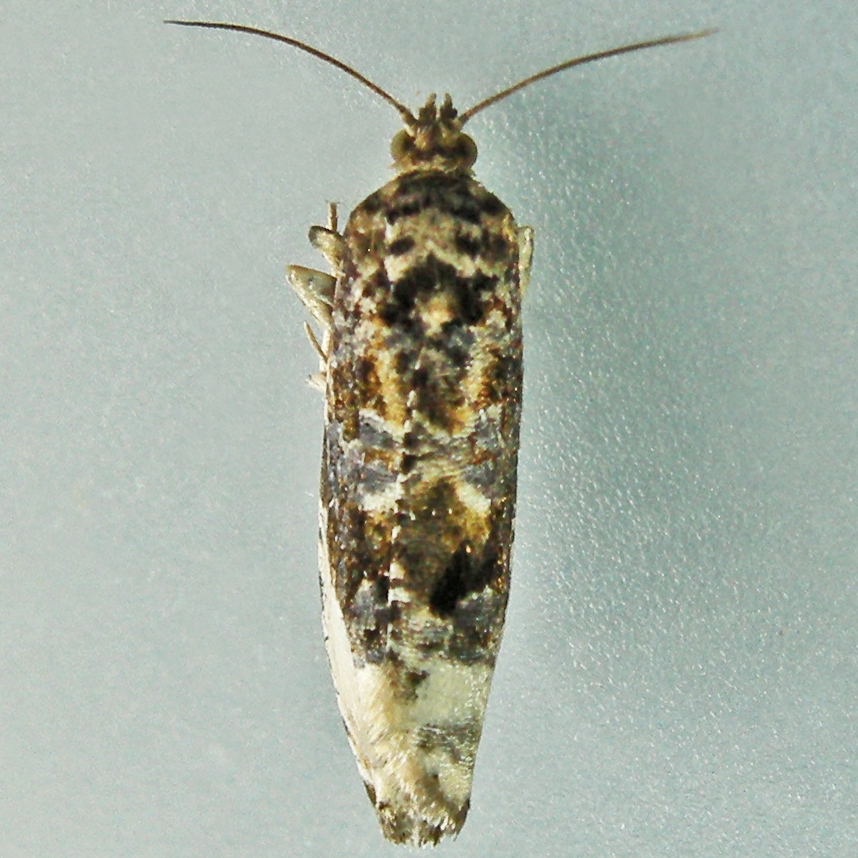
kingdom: Animalia
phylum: Arthropoda
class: Insecta
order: Lepidoptera
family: Tortricidae
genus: Hedya
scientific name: Hedya nubiferana
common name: Marbled orchard tortrix
